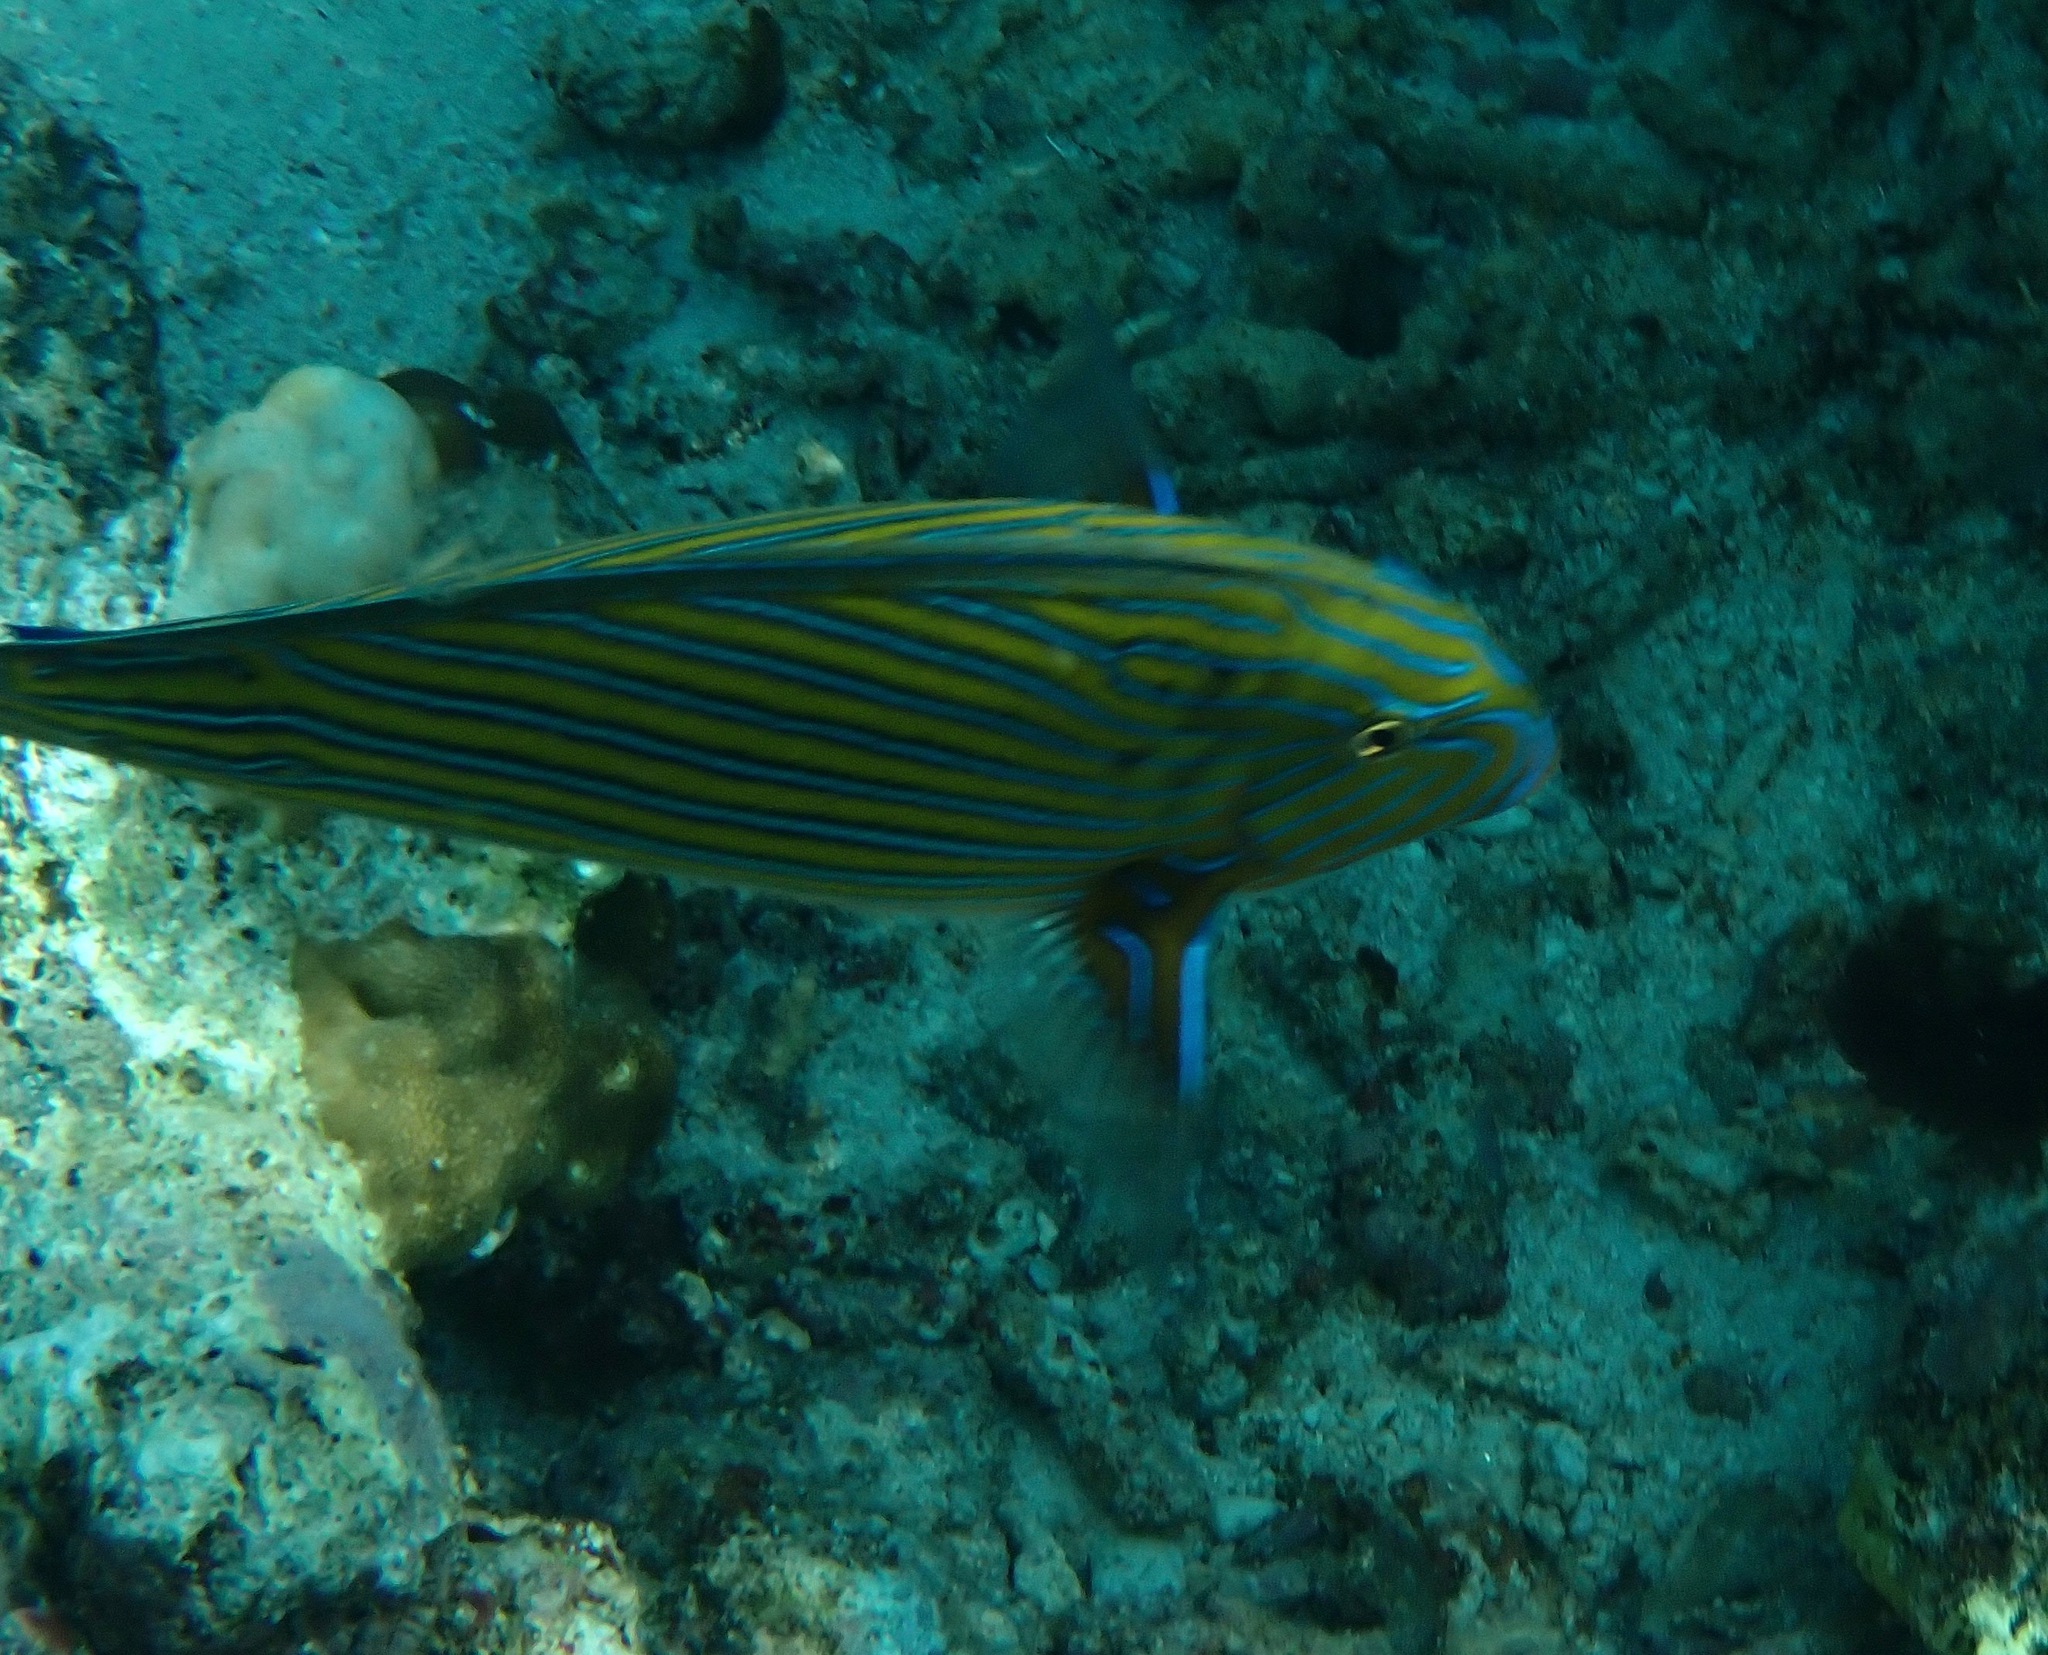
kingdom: Animalia
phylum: Chordata
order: Perciformes
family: Acanthuridae
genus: Acanthurus
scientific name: Acanthurus lineatus
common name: Striped surgeonfish
